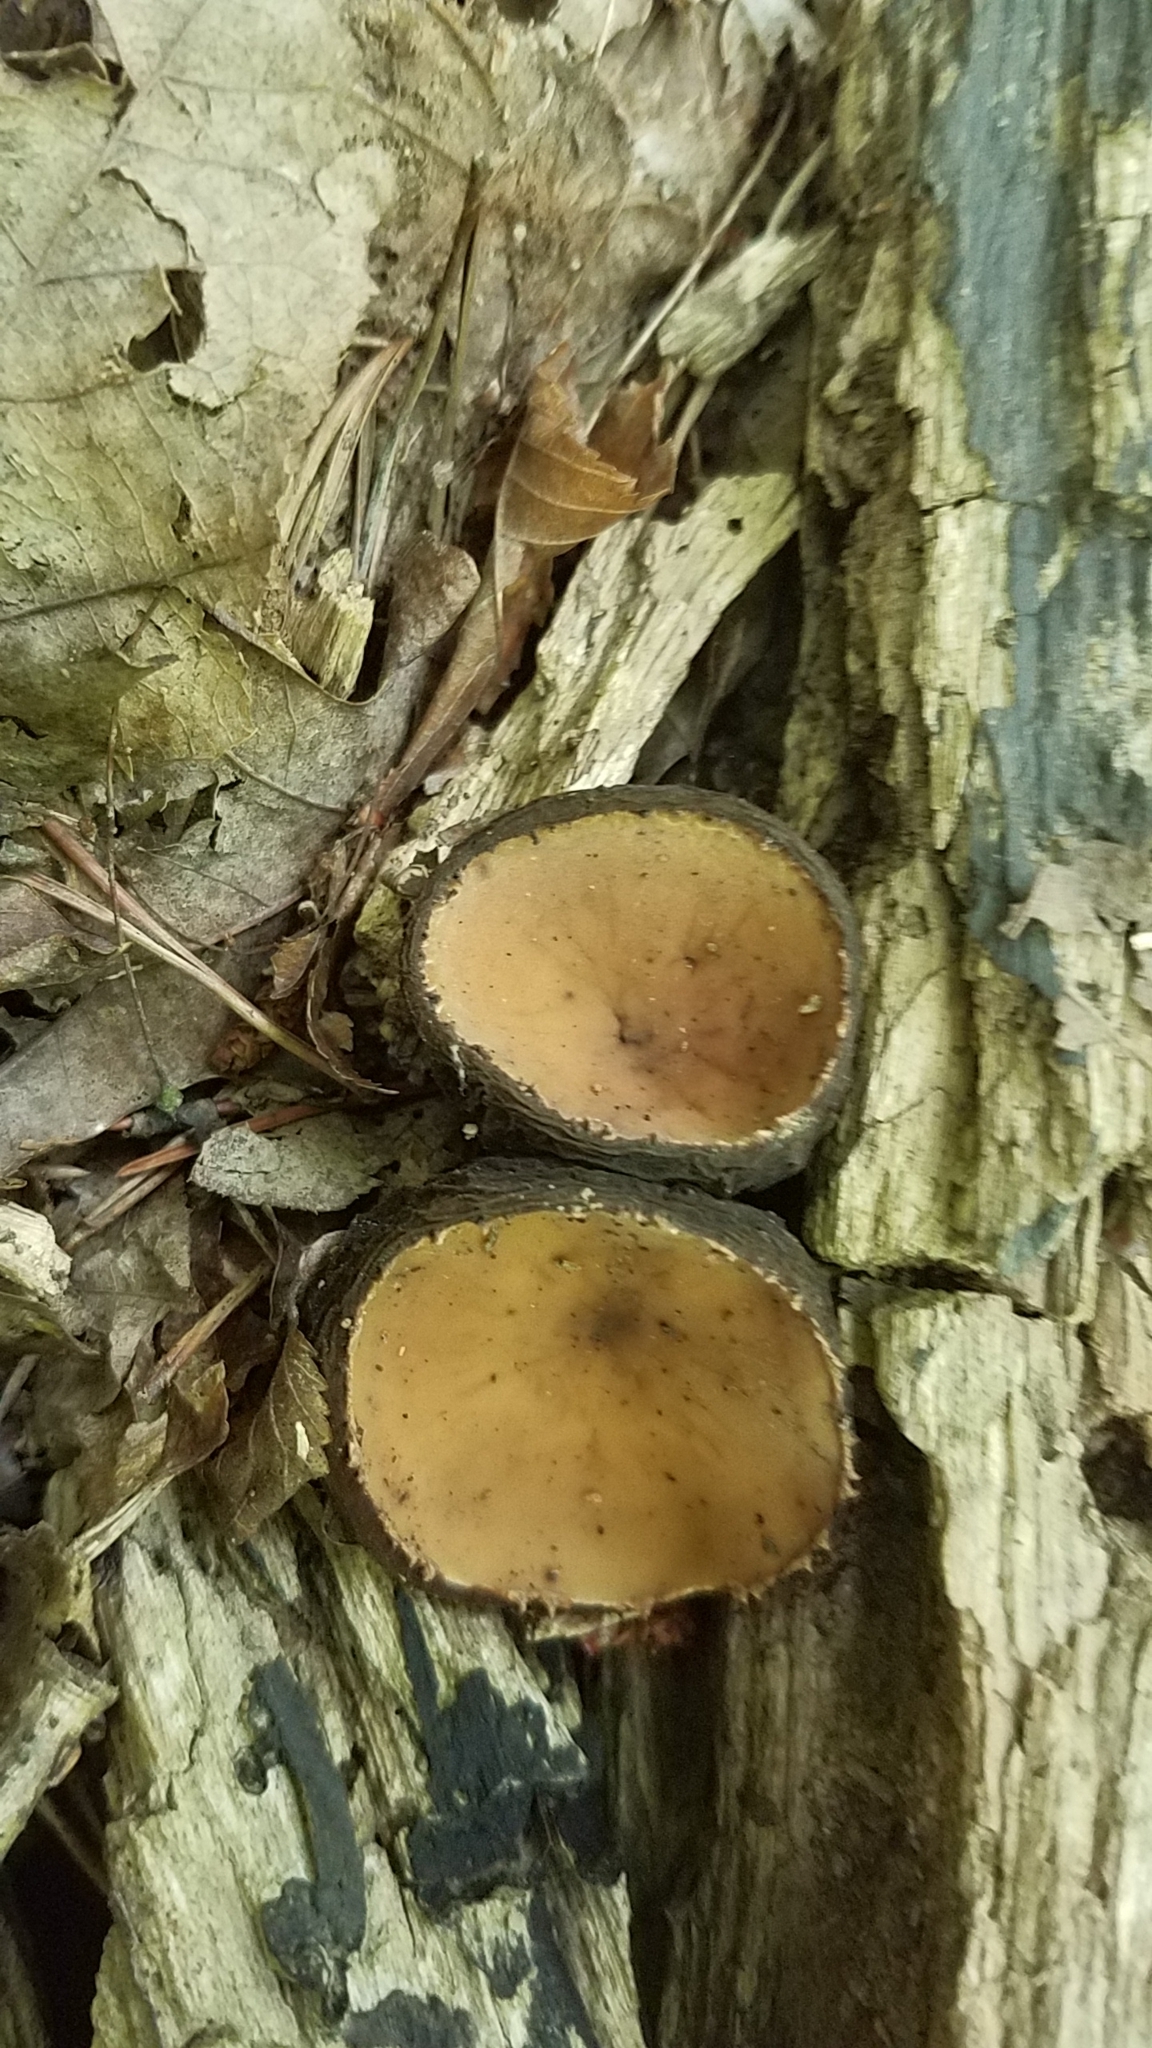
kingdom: Fungi
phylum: Ascomycota
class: Pezizomycetes
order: Pezizales
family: Sarcosomataceae
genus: Galiella
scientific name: Galiella rufa
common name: Hairy rubber cup
